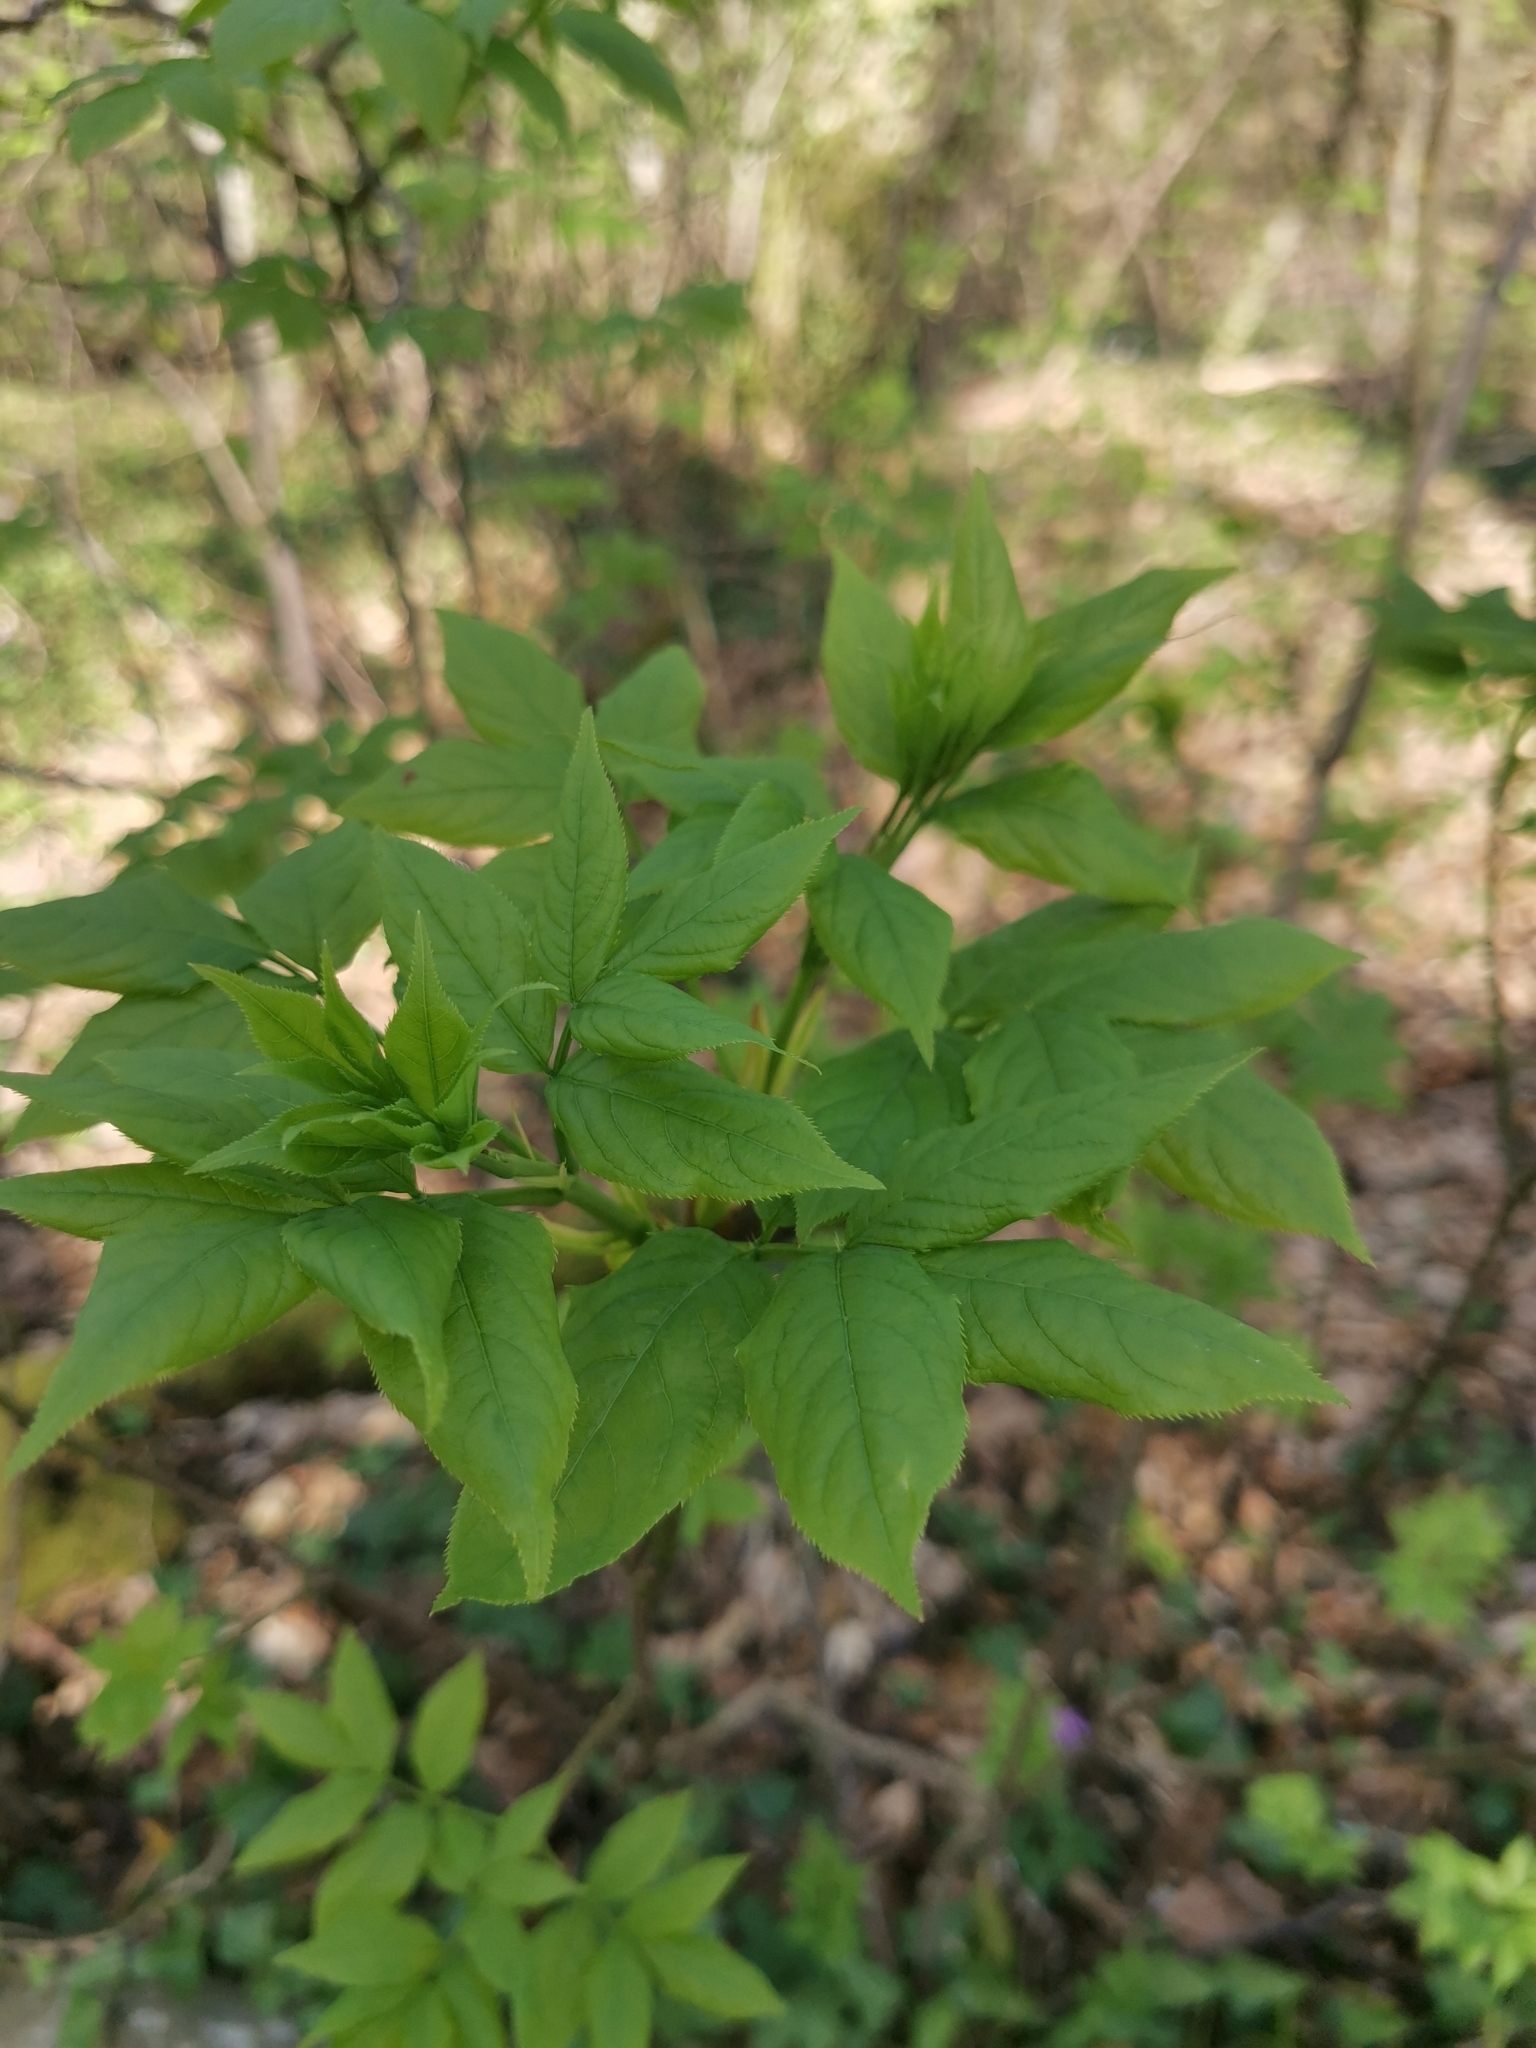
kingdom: Plantae
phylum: Tracheophyta
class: Magnoliopsida
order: Crossosomatales
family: Staphyleaceae
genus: Staphylea
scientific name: Staphylea pinnata
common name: Bladdernut
